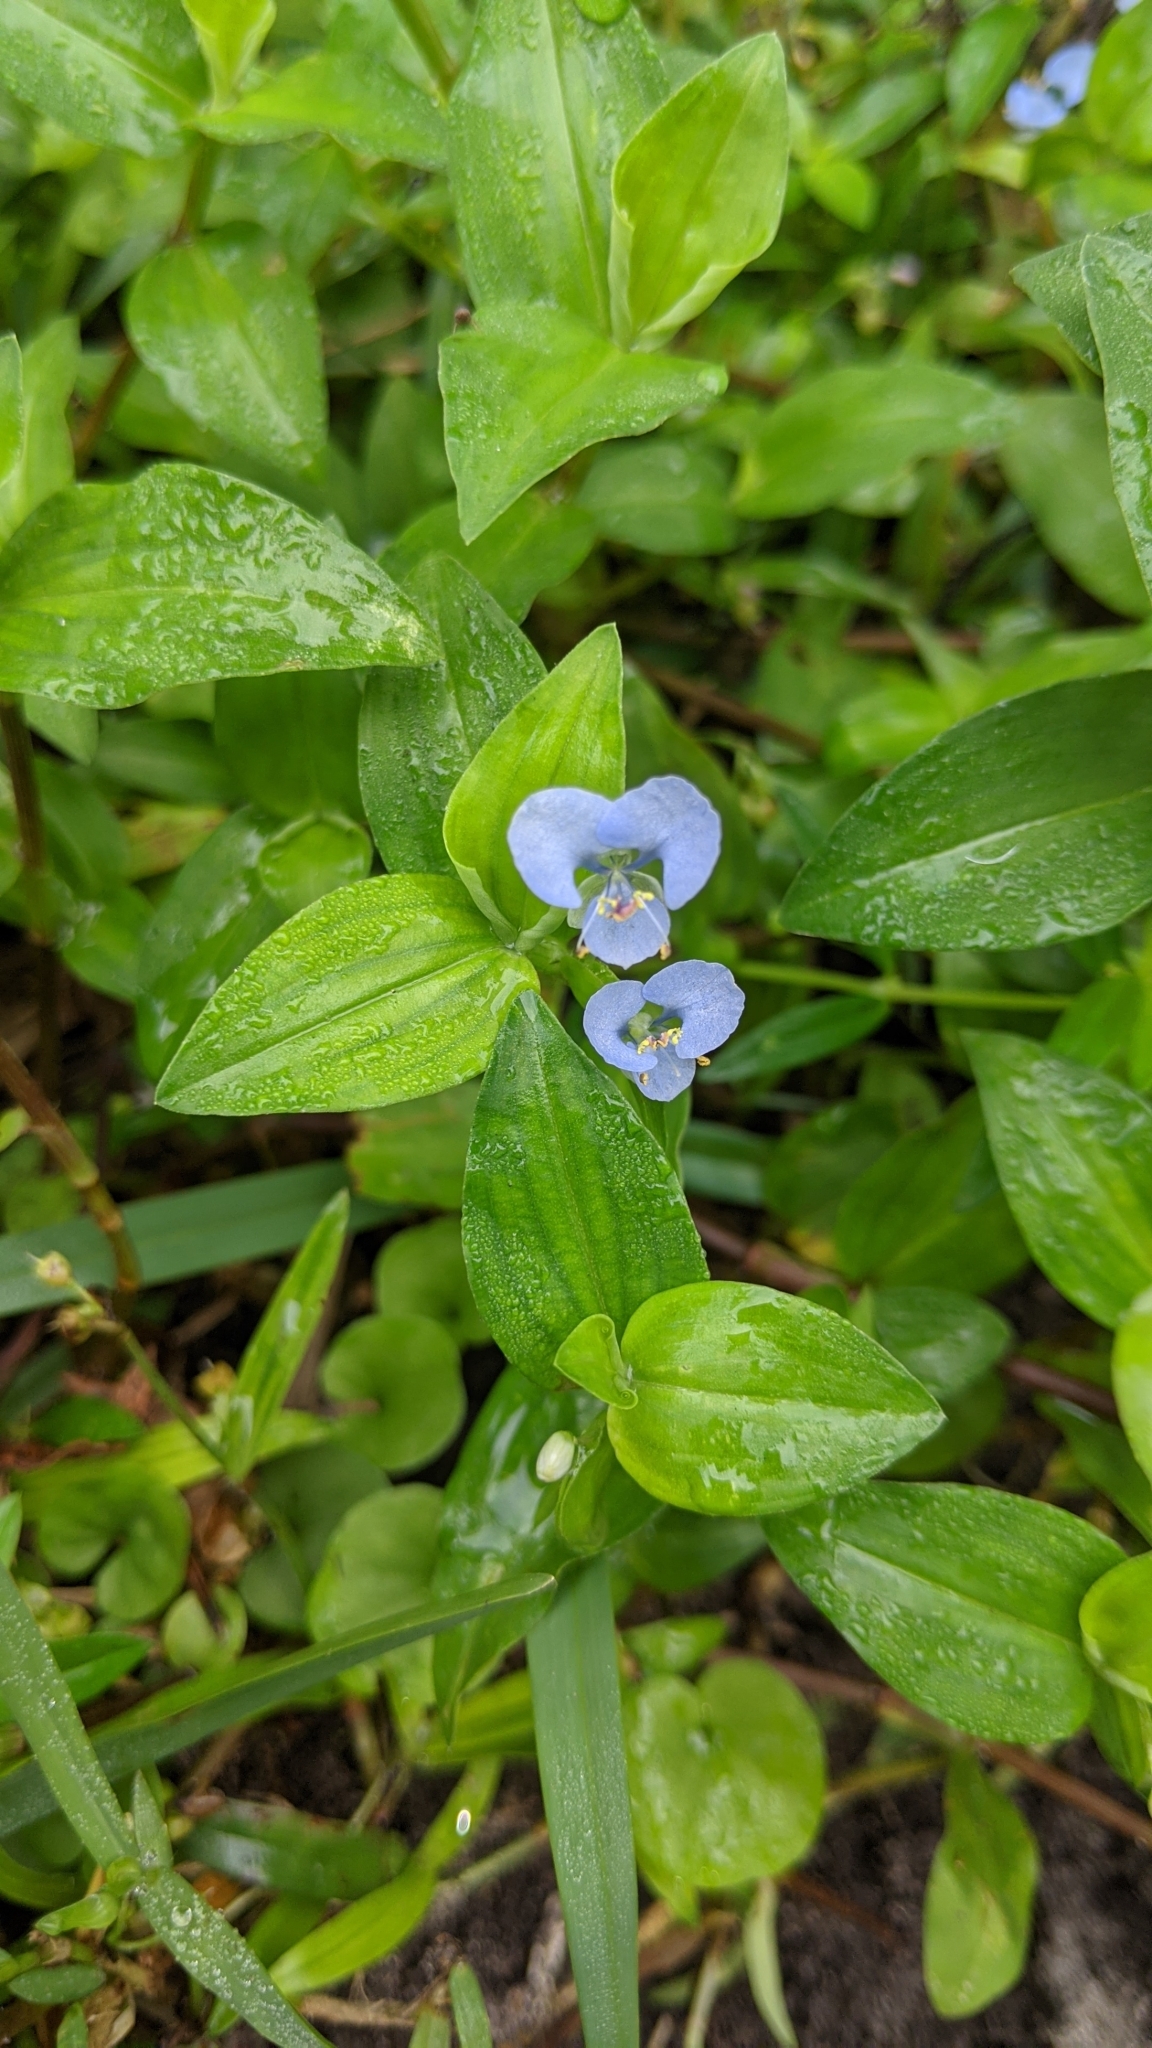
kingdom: Plantae
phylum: Tracheophyta
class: Liliopsida
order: Commelinales
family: Commelinaceae
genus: Commelina
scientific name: Commelina diffusa
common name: Climbing dayflower
